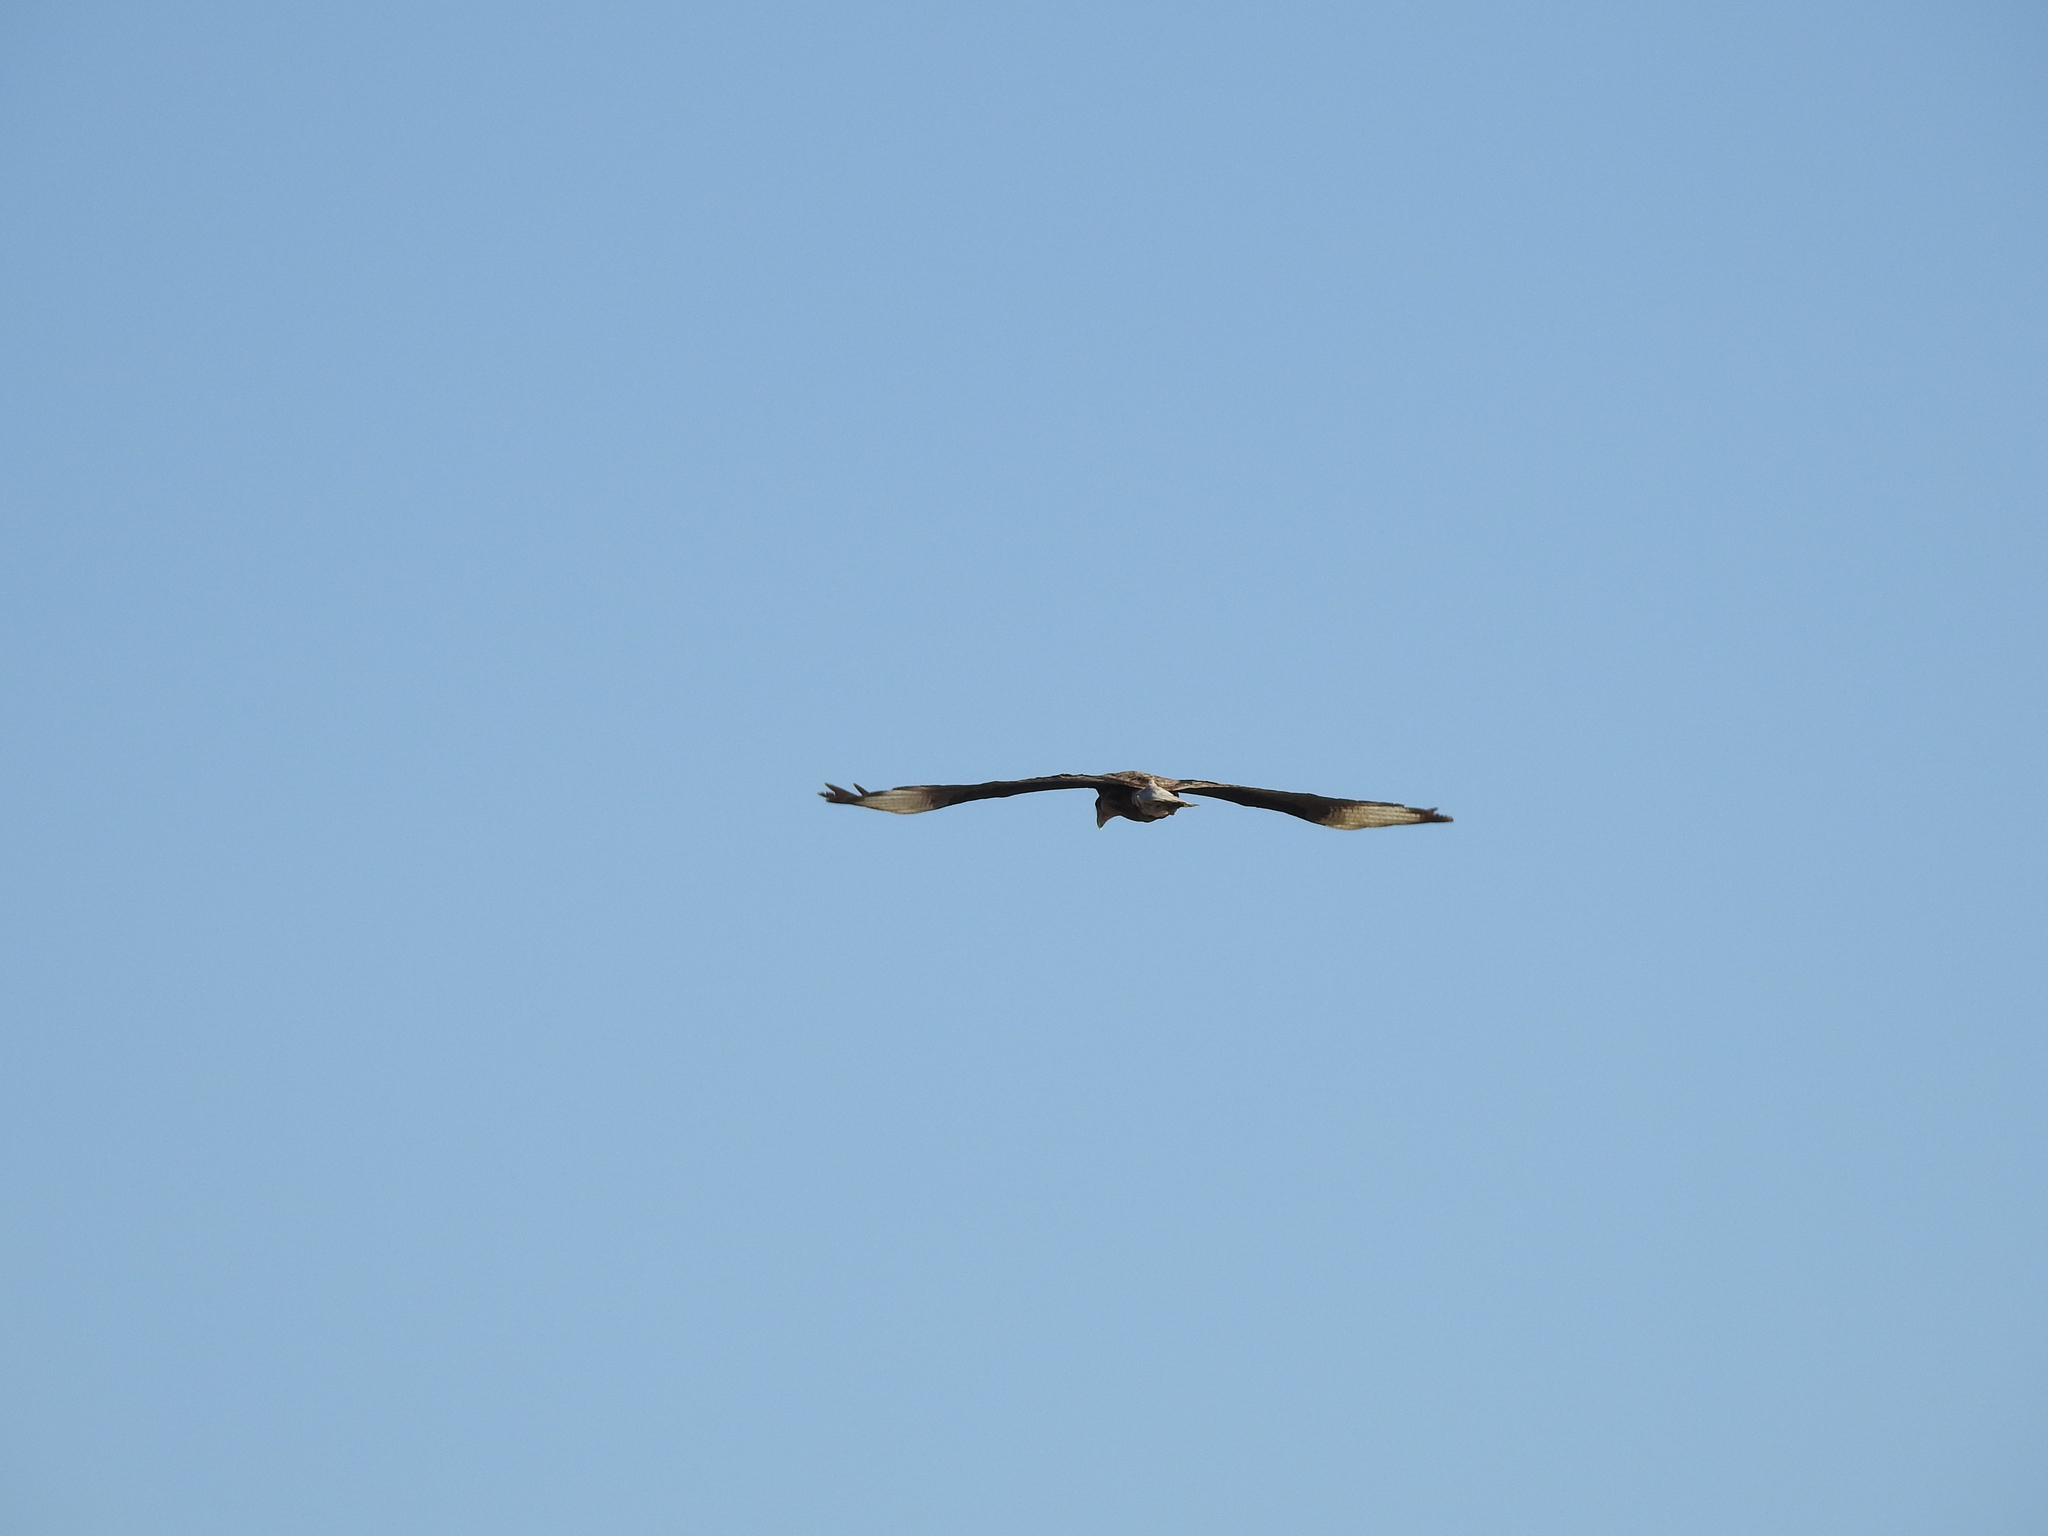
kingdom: Animalia
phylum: Chordata
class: Aves
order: Falconiformes
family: Falconidae
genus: Caracara
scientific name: Caracara plancus
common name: Southern caracara
